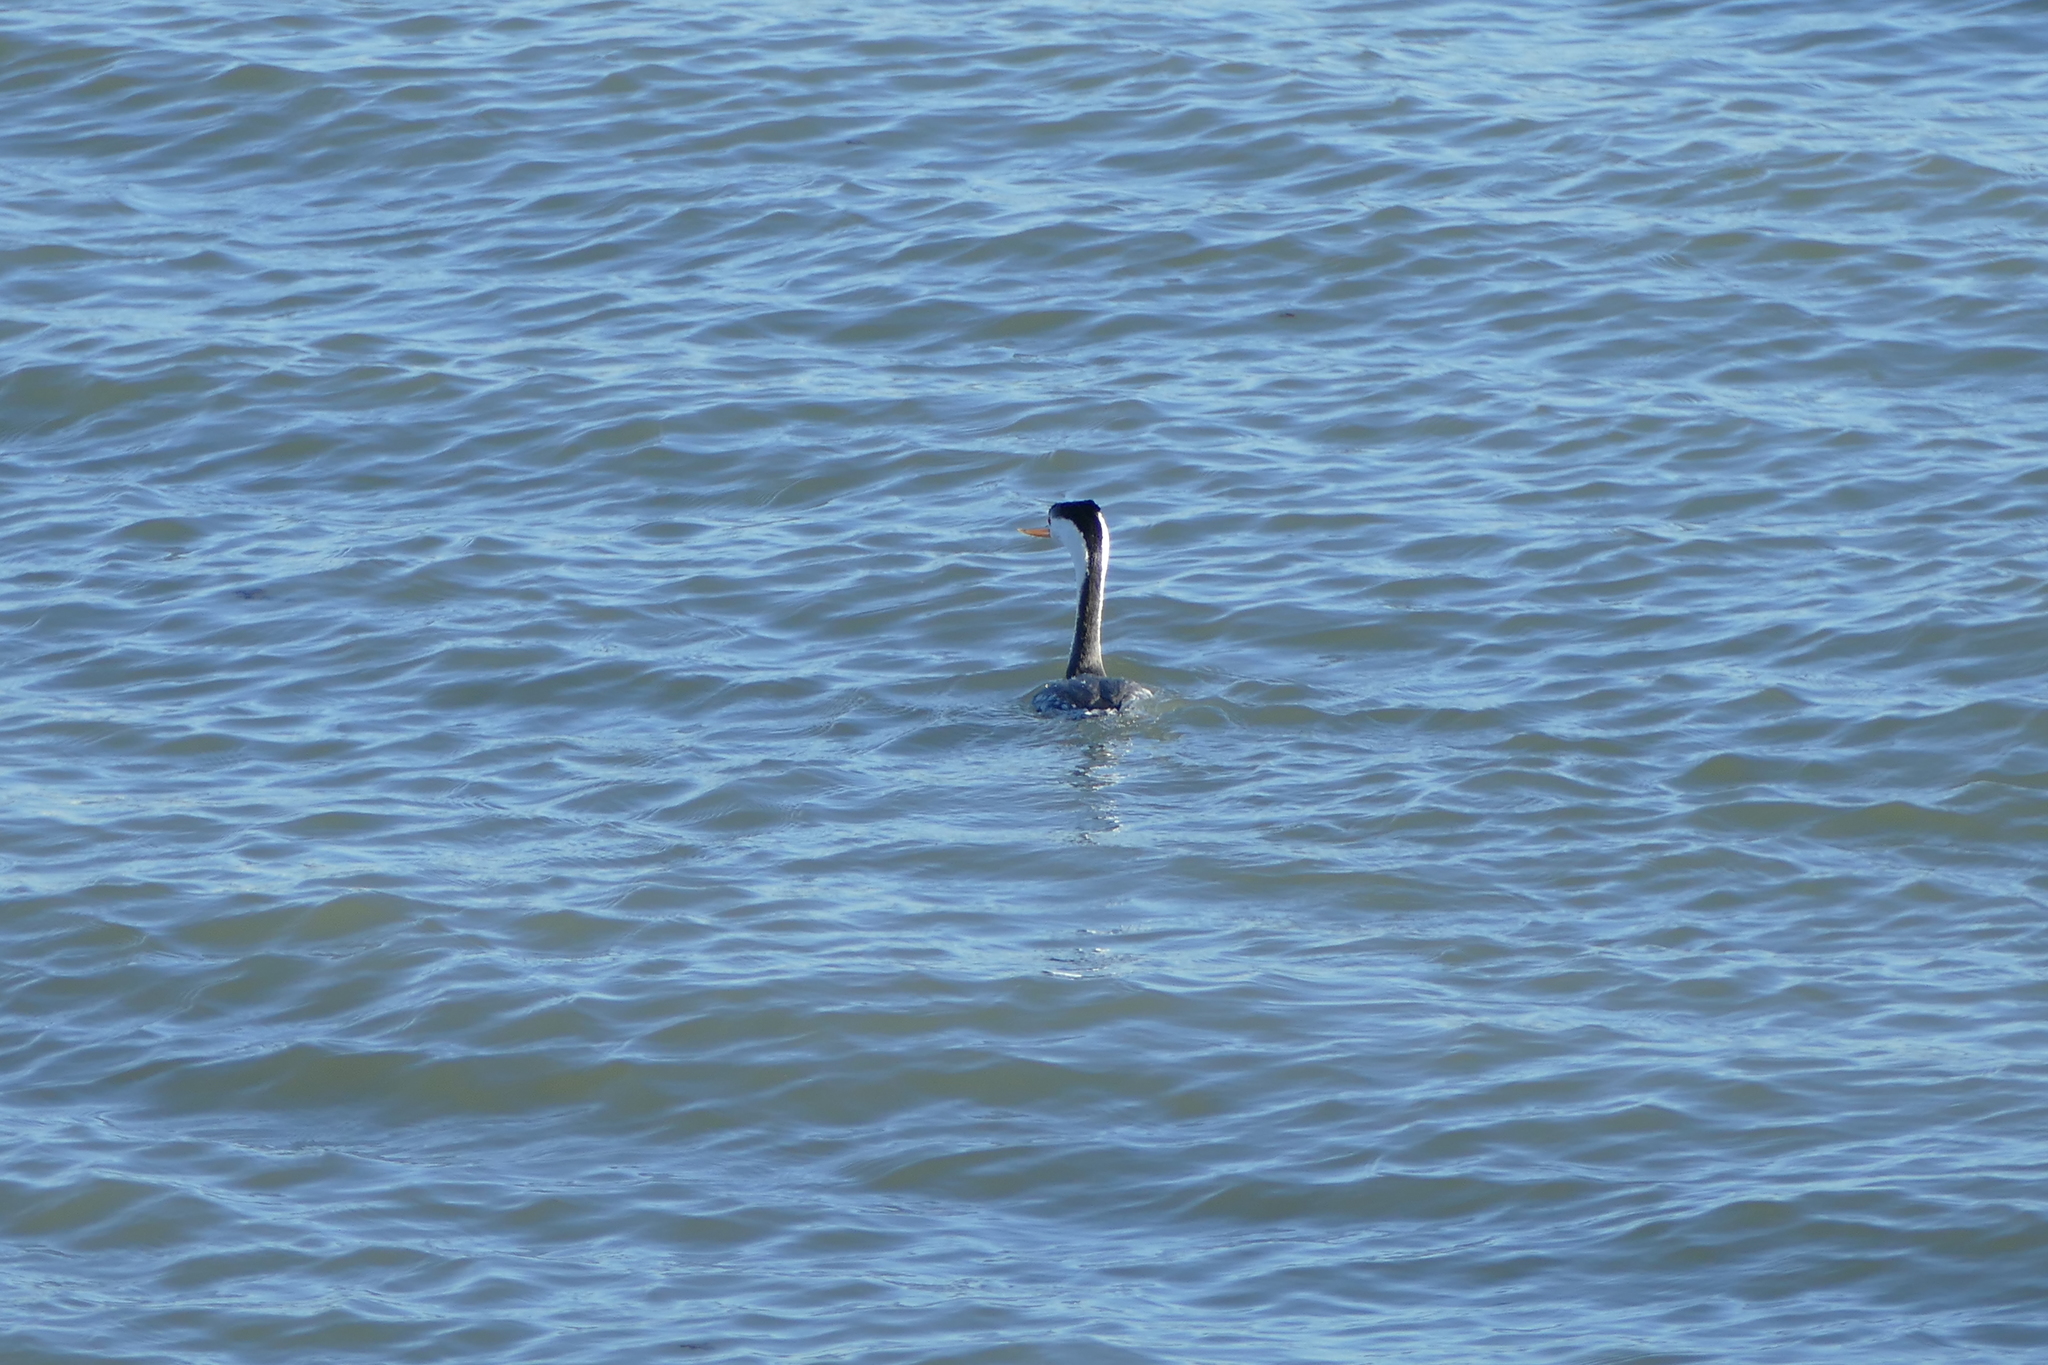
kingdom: Animalia
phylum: Chordata
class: Aves
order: Podicipediformes
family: Podicipedidae
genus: Aechmophorus
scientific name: Aechmophorus clarkii
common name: Clark's grebe
